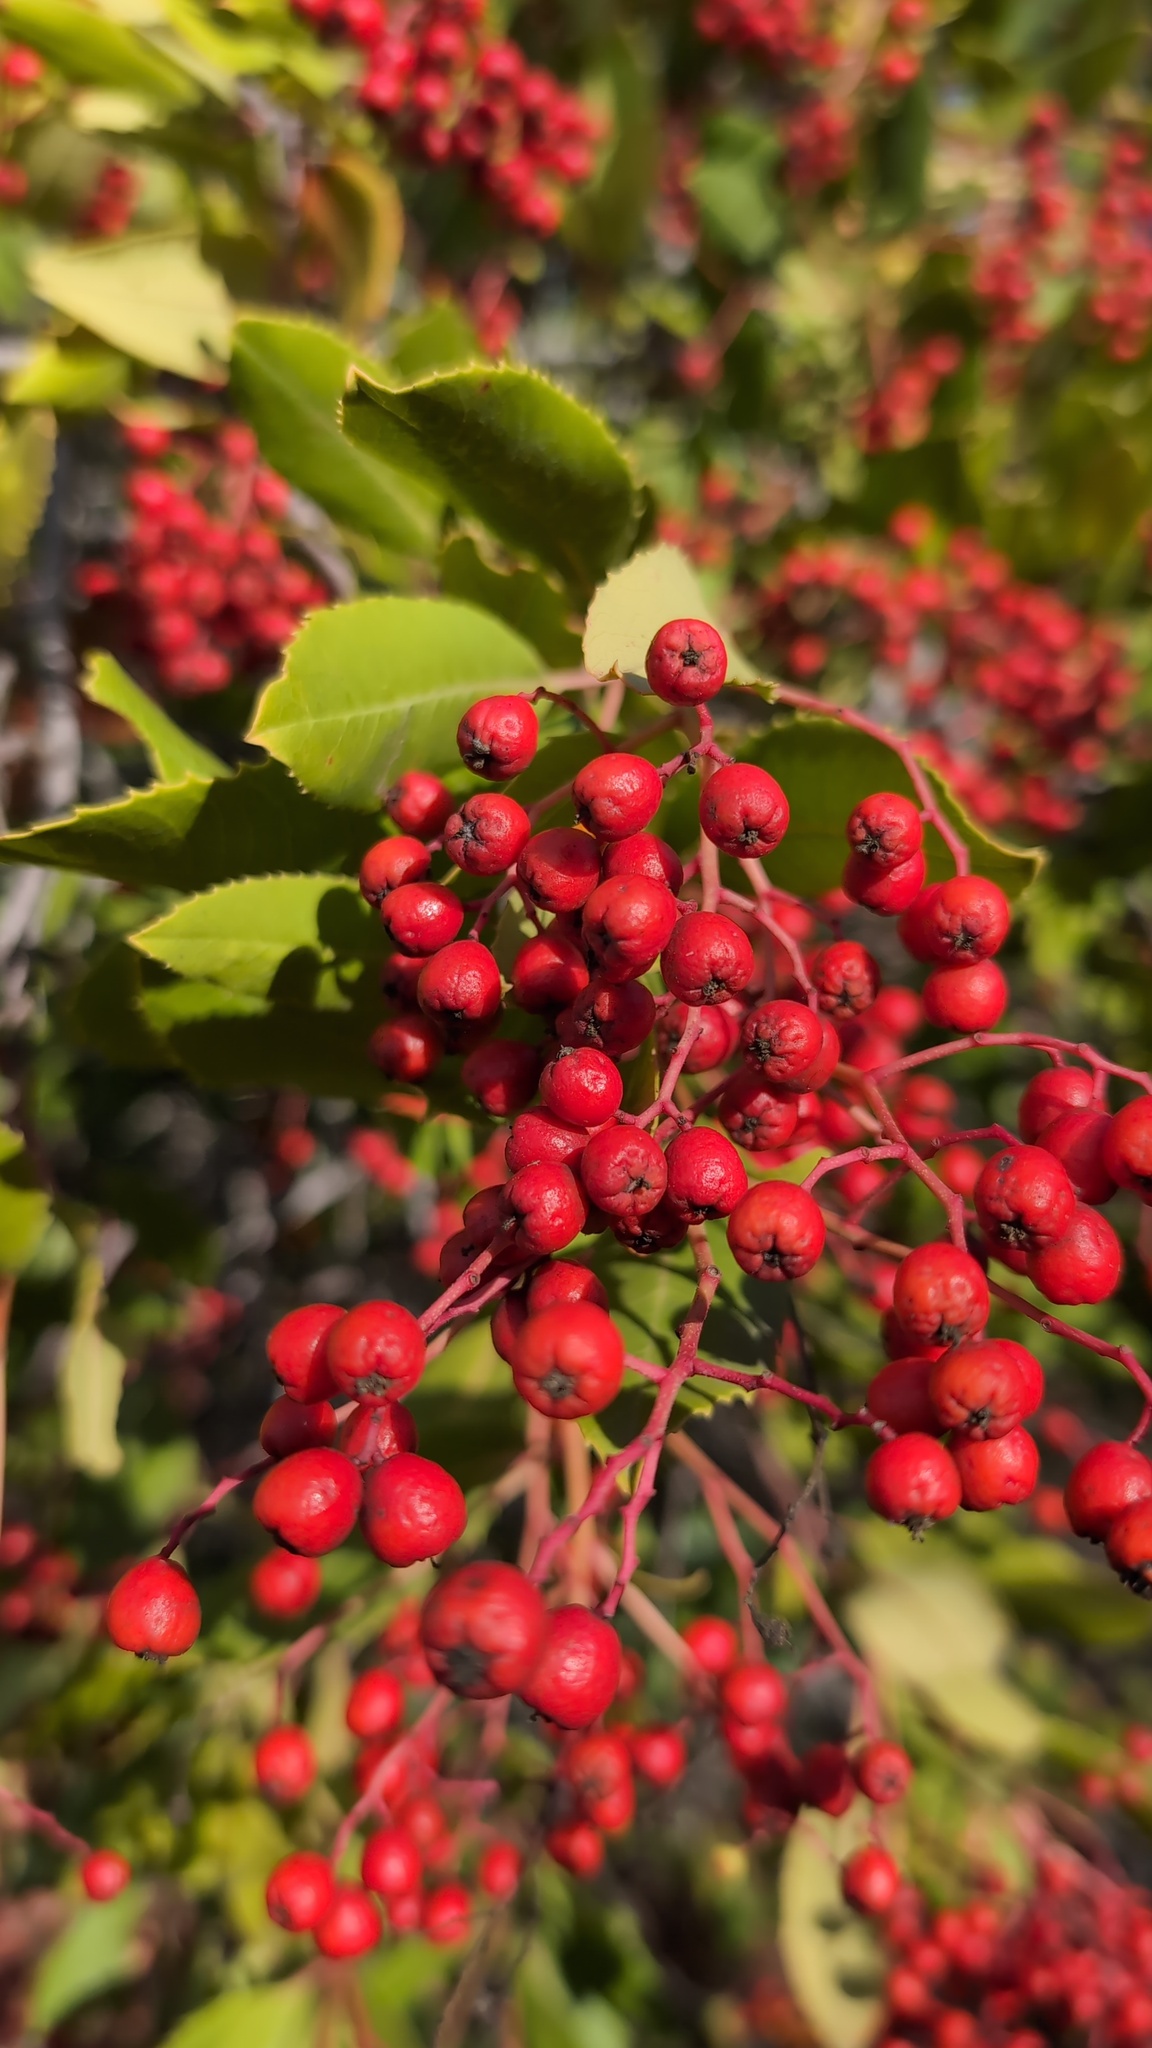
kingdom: Plantae
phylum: Tracheophyta
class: Magnoliopsida
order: Rosales
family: Rosaceae
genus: Heteromeles
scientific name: Heteromeles arbutifolia
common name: California-holly
